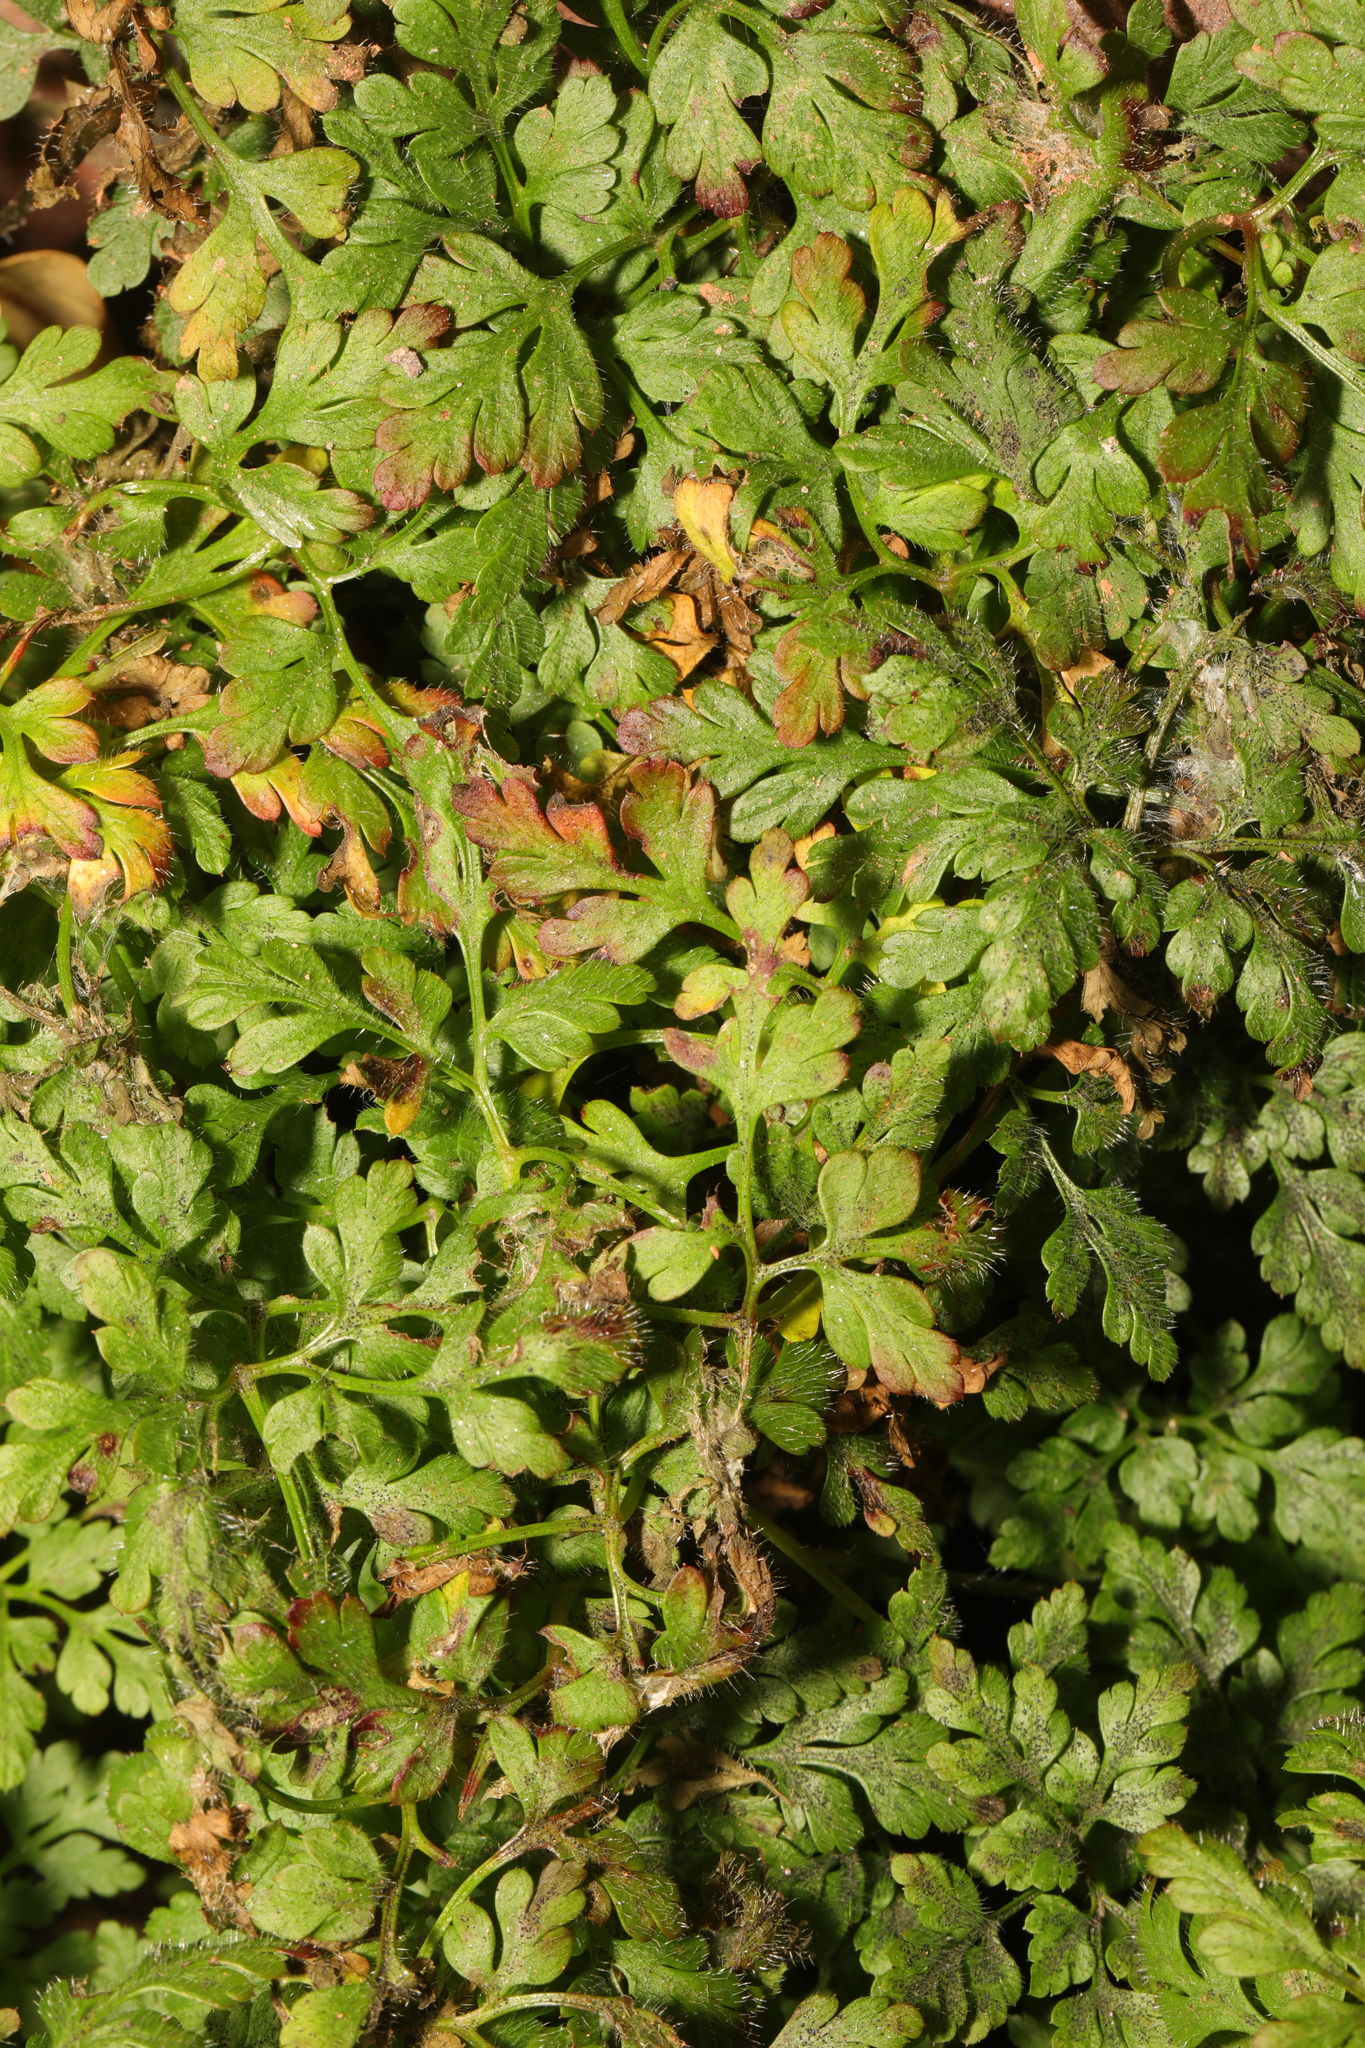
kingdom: Plantae
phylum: Tracheophyta
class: Magnoliopsida
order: Geraniales
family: Geraniaceae
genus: Geranium
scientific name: Geranium robertianum
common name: Herb-robert
